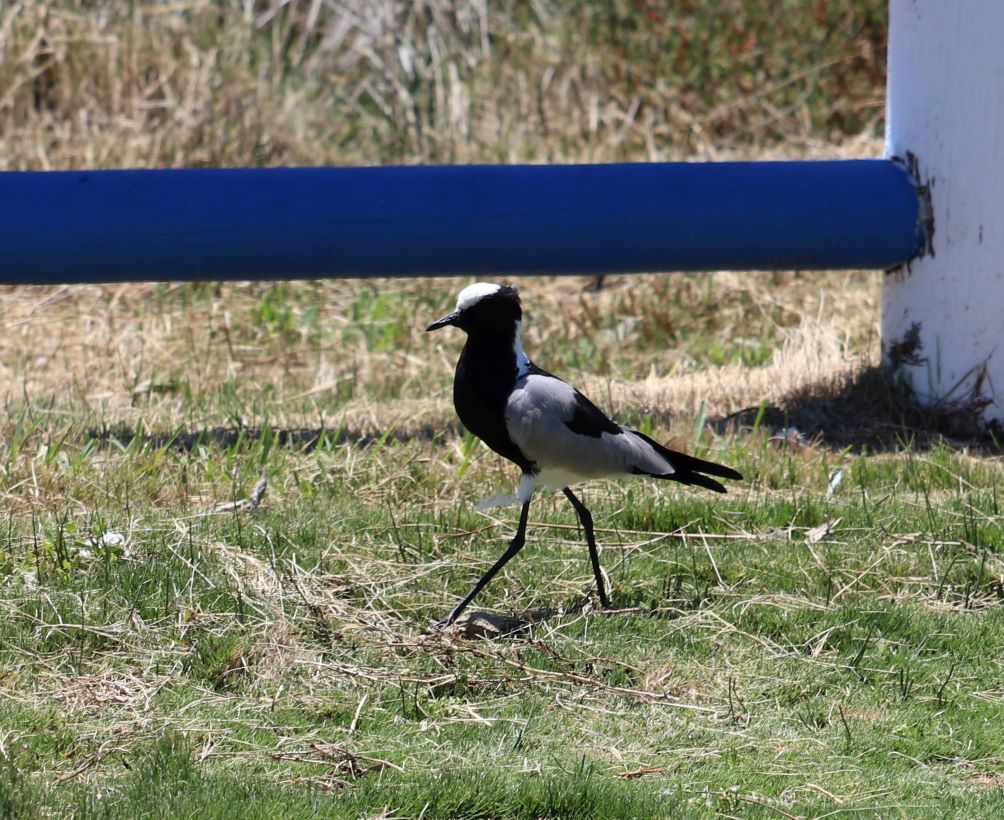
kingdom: Animalia
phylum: Chordata
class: Aves
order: Charadriiformes
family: Charadriidae
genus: Vanellus
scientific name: Vanellus armatus
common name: Blacksmith lapwing
